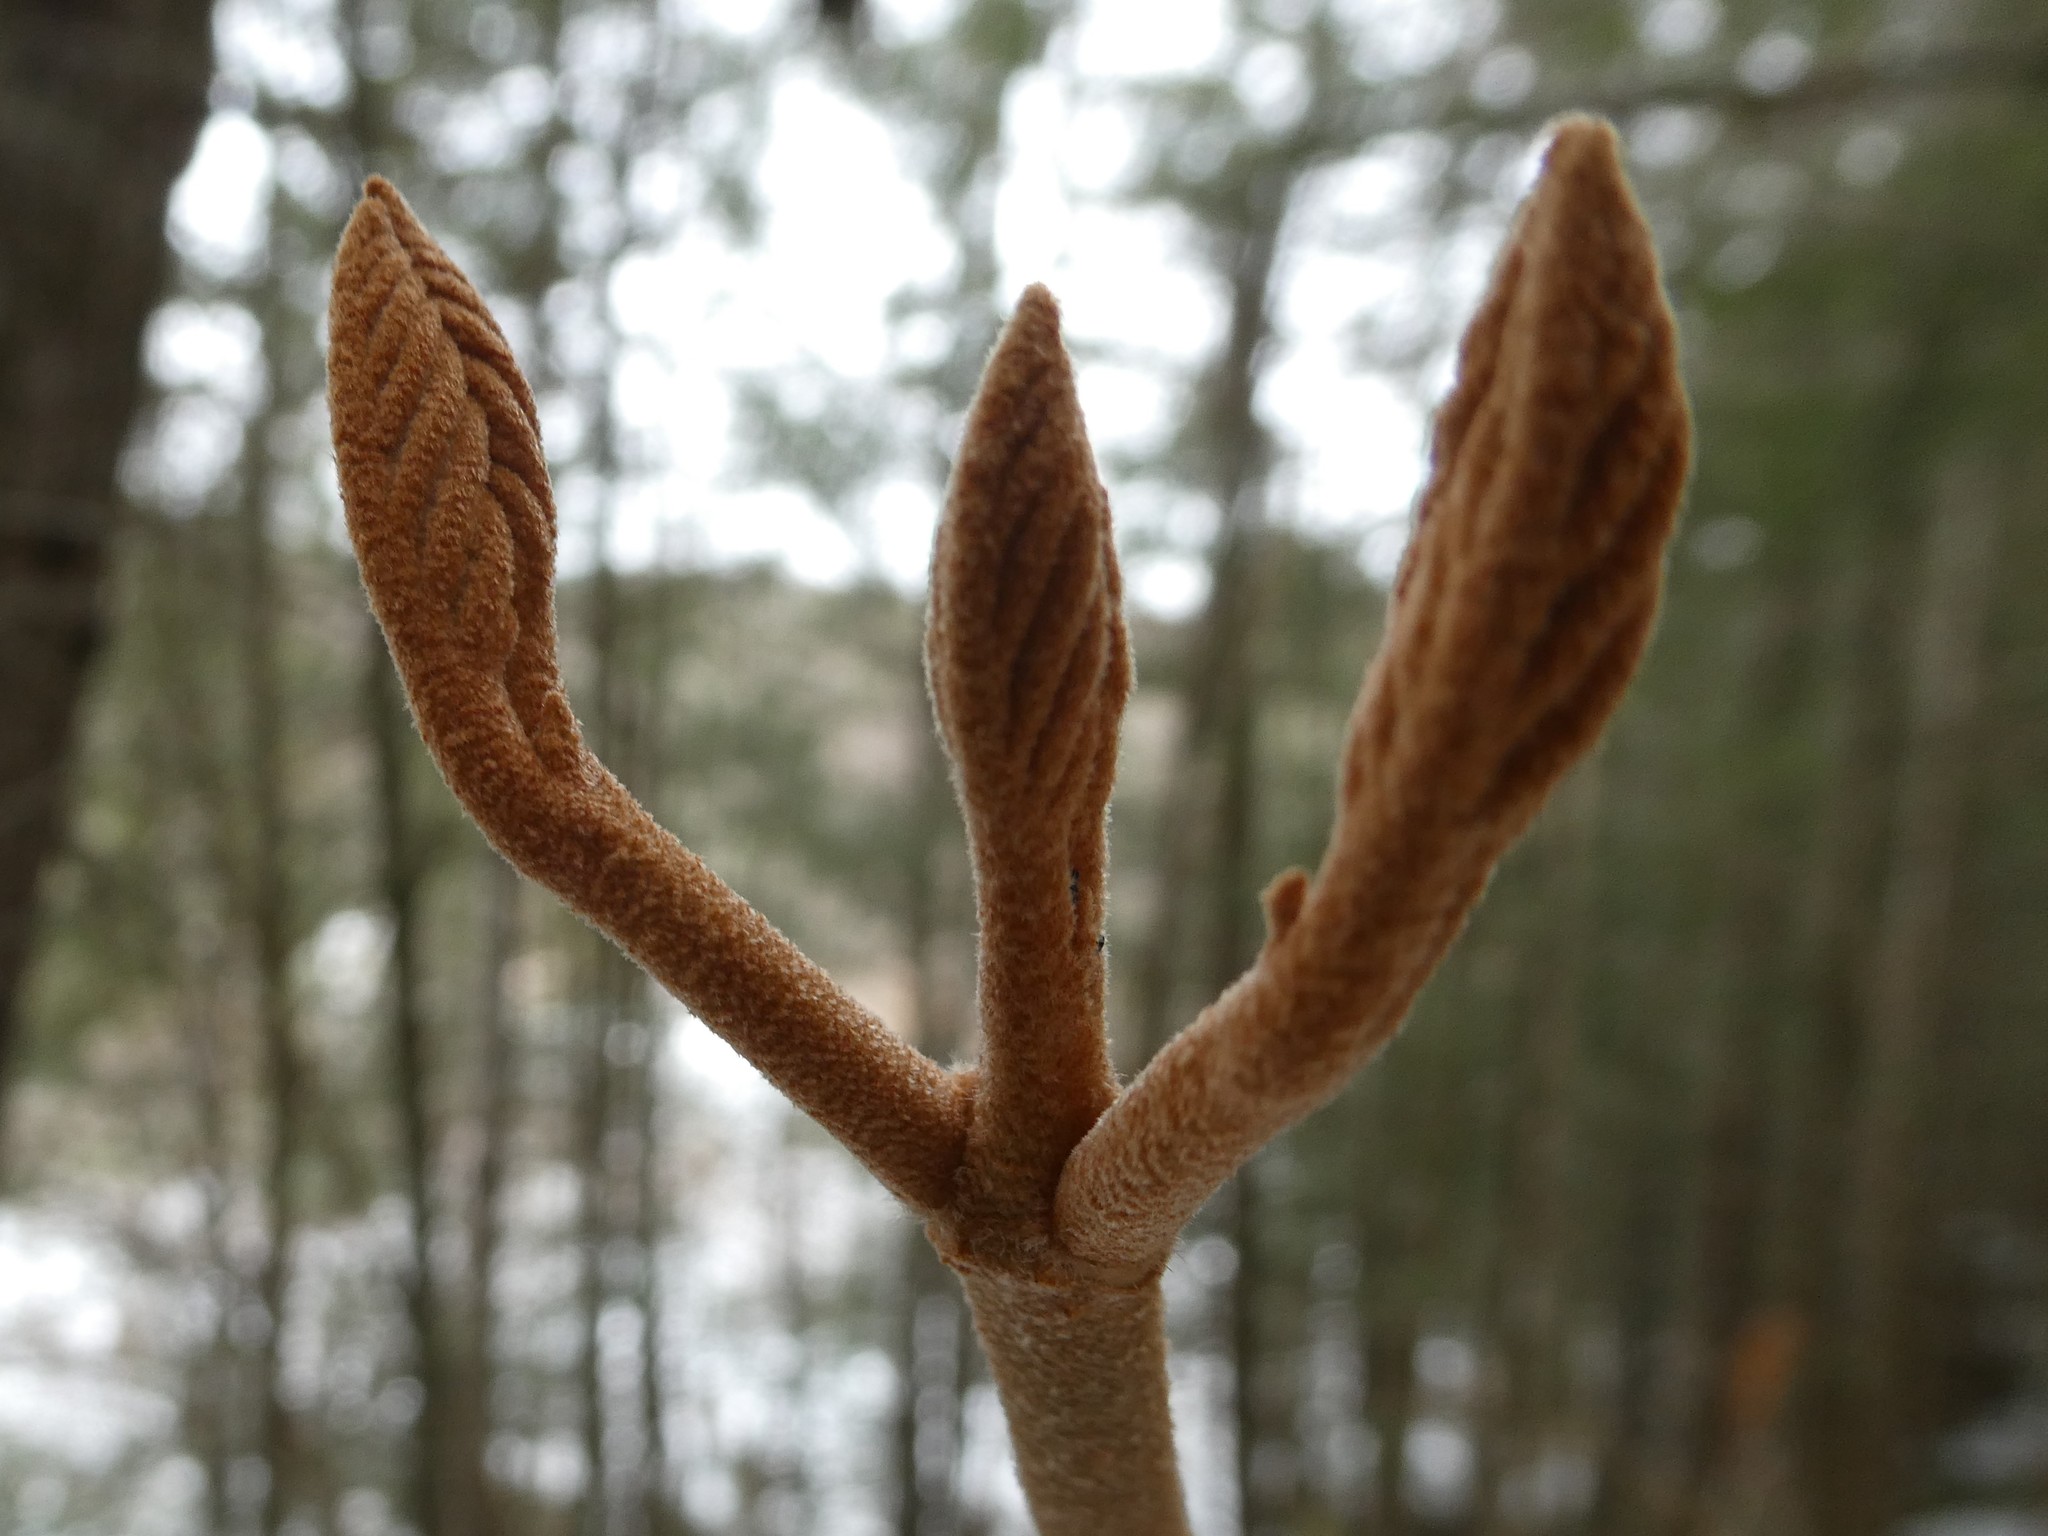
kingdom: Plantae
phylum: Tracheophyta
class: Magnoliopsida
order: Dipsacales
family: Viburnaceae
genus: Viburnum
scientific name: Viburnum lantanoides
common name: Hobblebush
